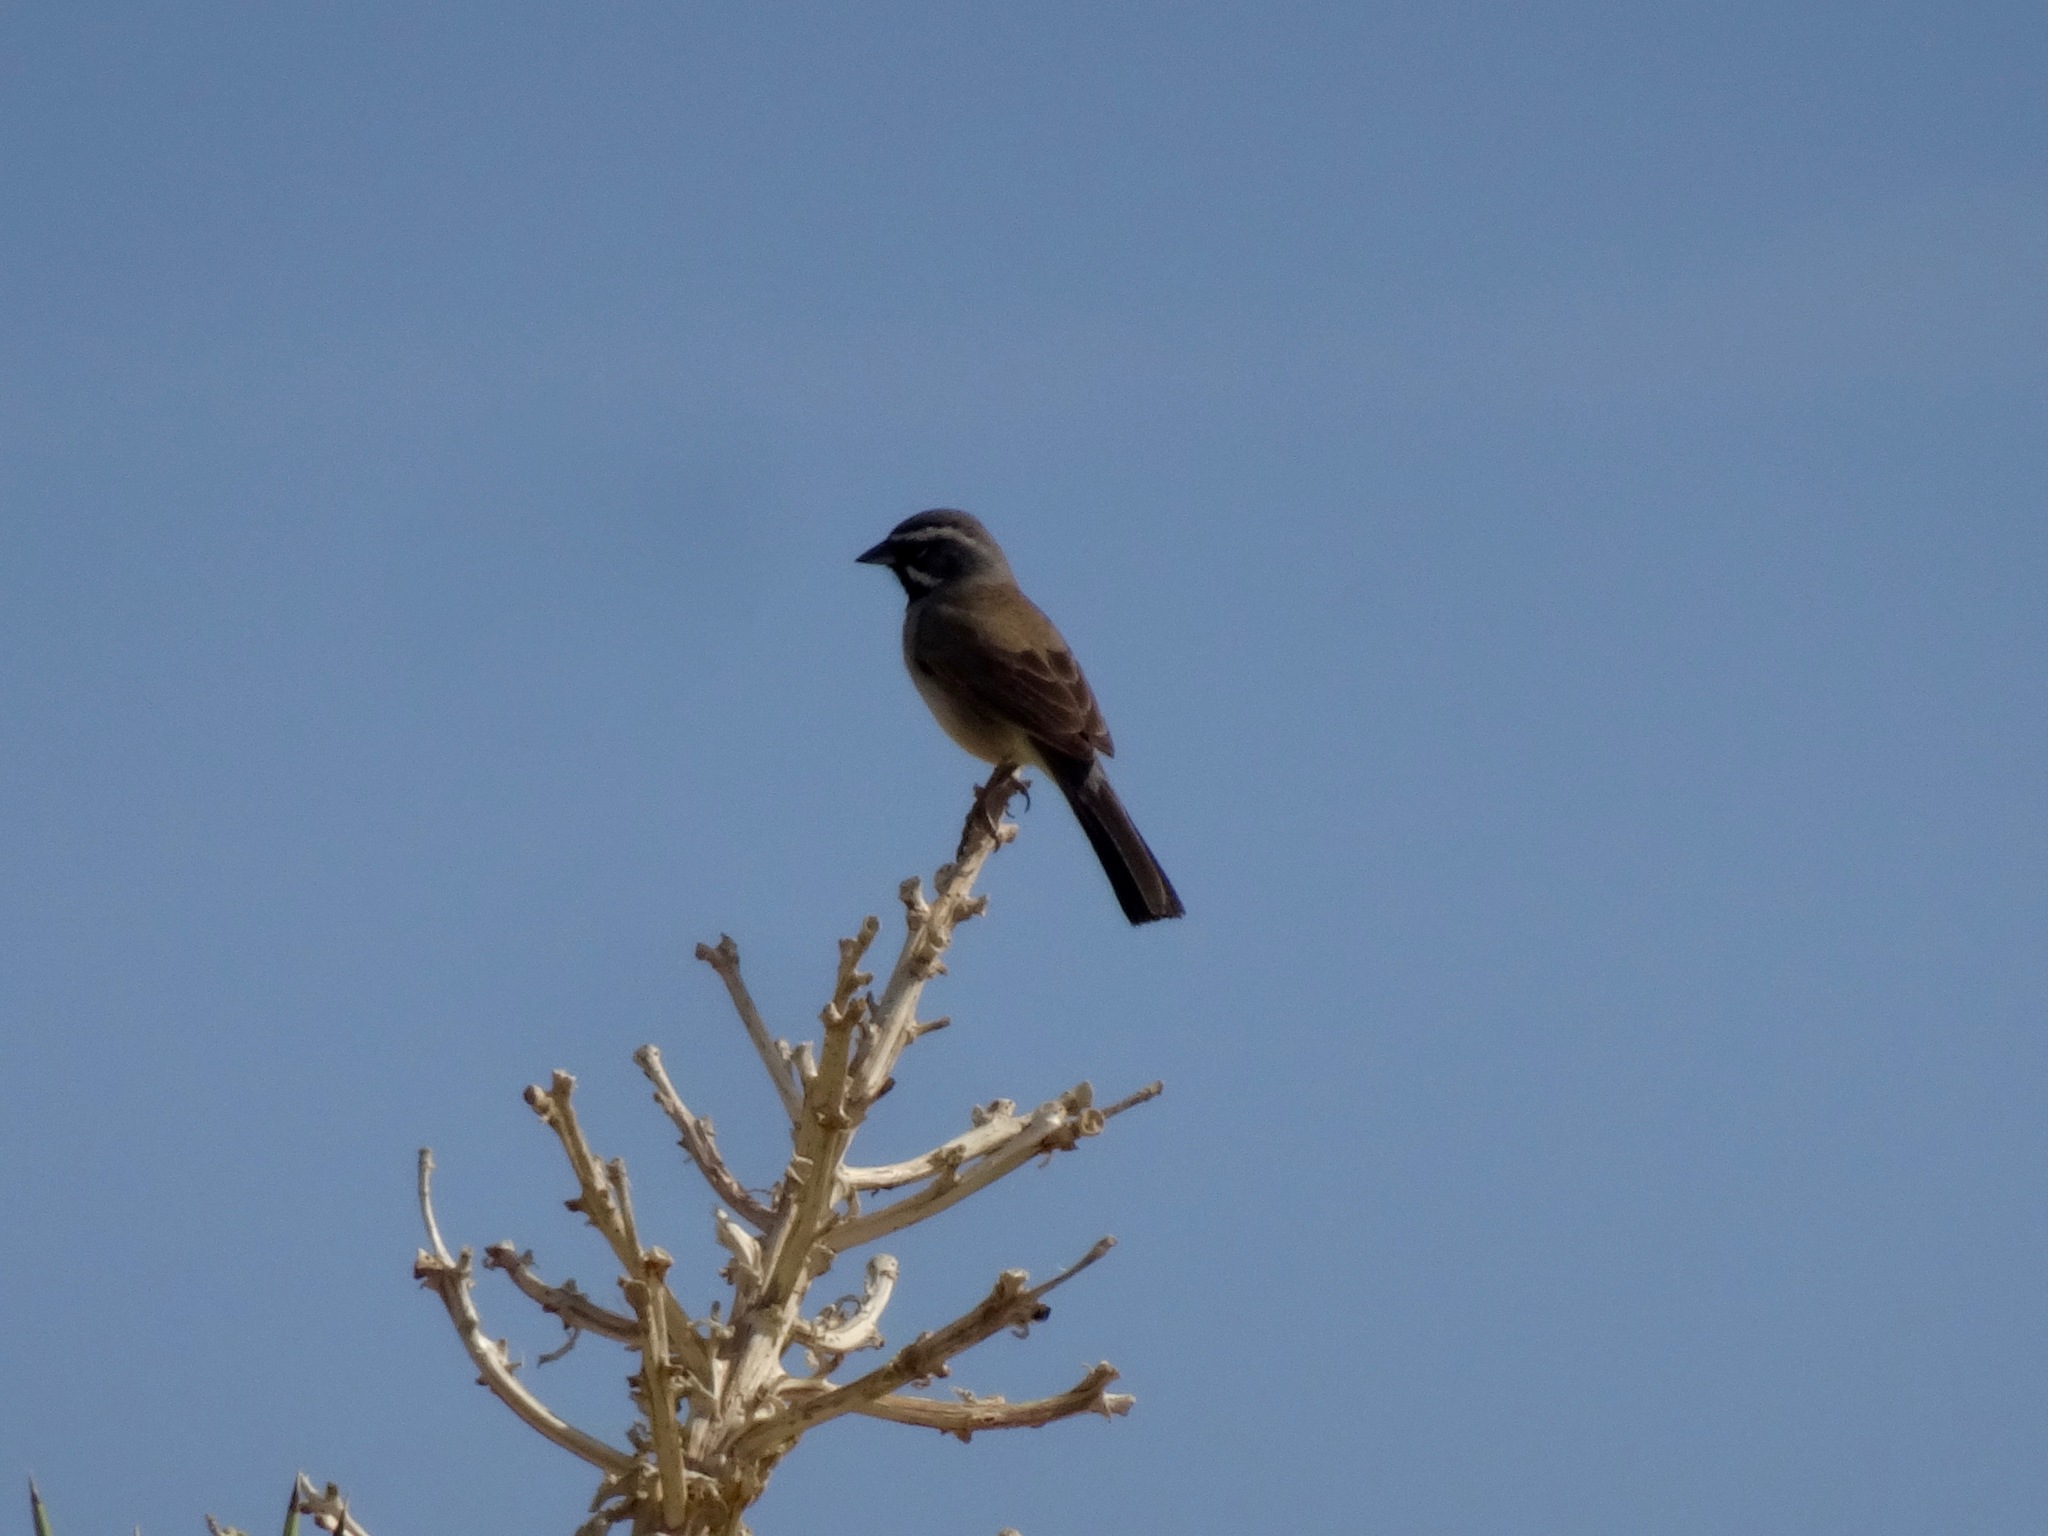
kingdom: Animalia
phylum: Chordata
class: Aves
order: Passeriformes
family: Passerellidae
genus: Amphispiza
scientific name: Amphispiza bilineata
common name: Black-throated sparrow
